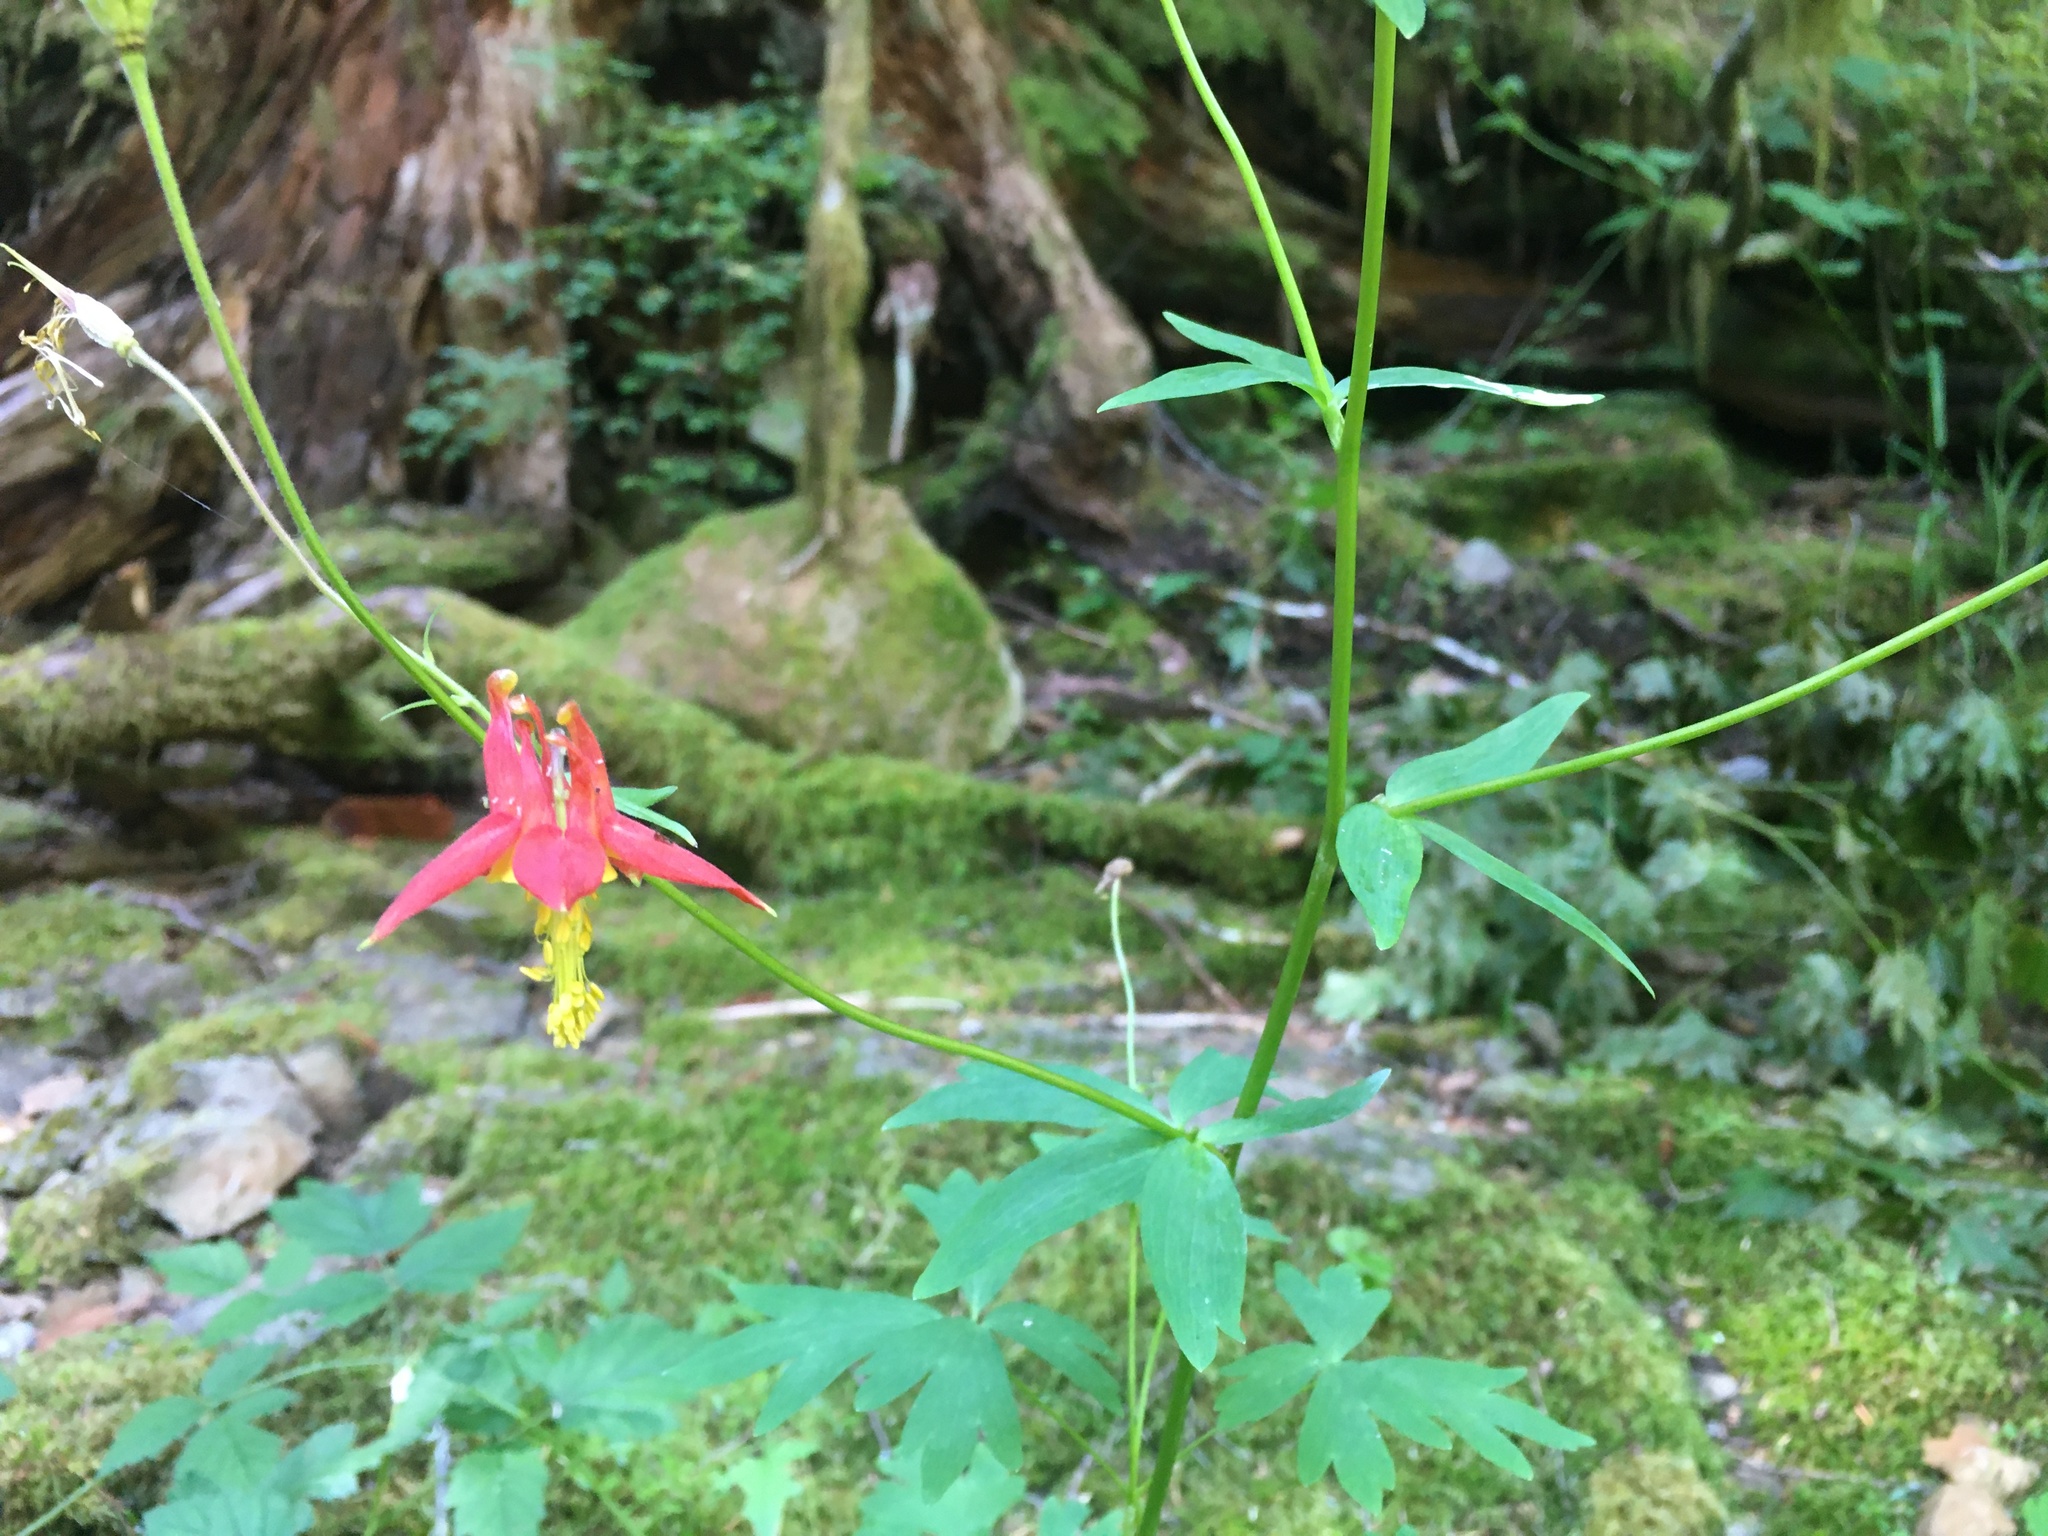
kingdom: Plantae
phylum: Tracheophyta
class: Magnoliopsida
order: Ranunculales
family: Ranunculaceae
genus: Aquilegia
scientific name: Aquilegia formosa
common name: Sitka columbine
